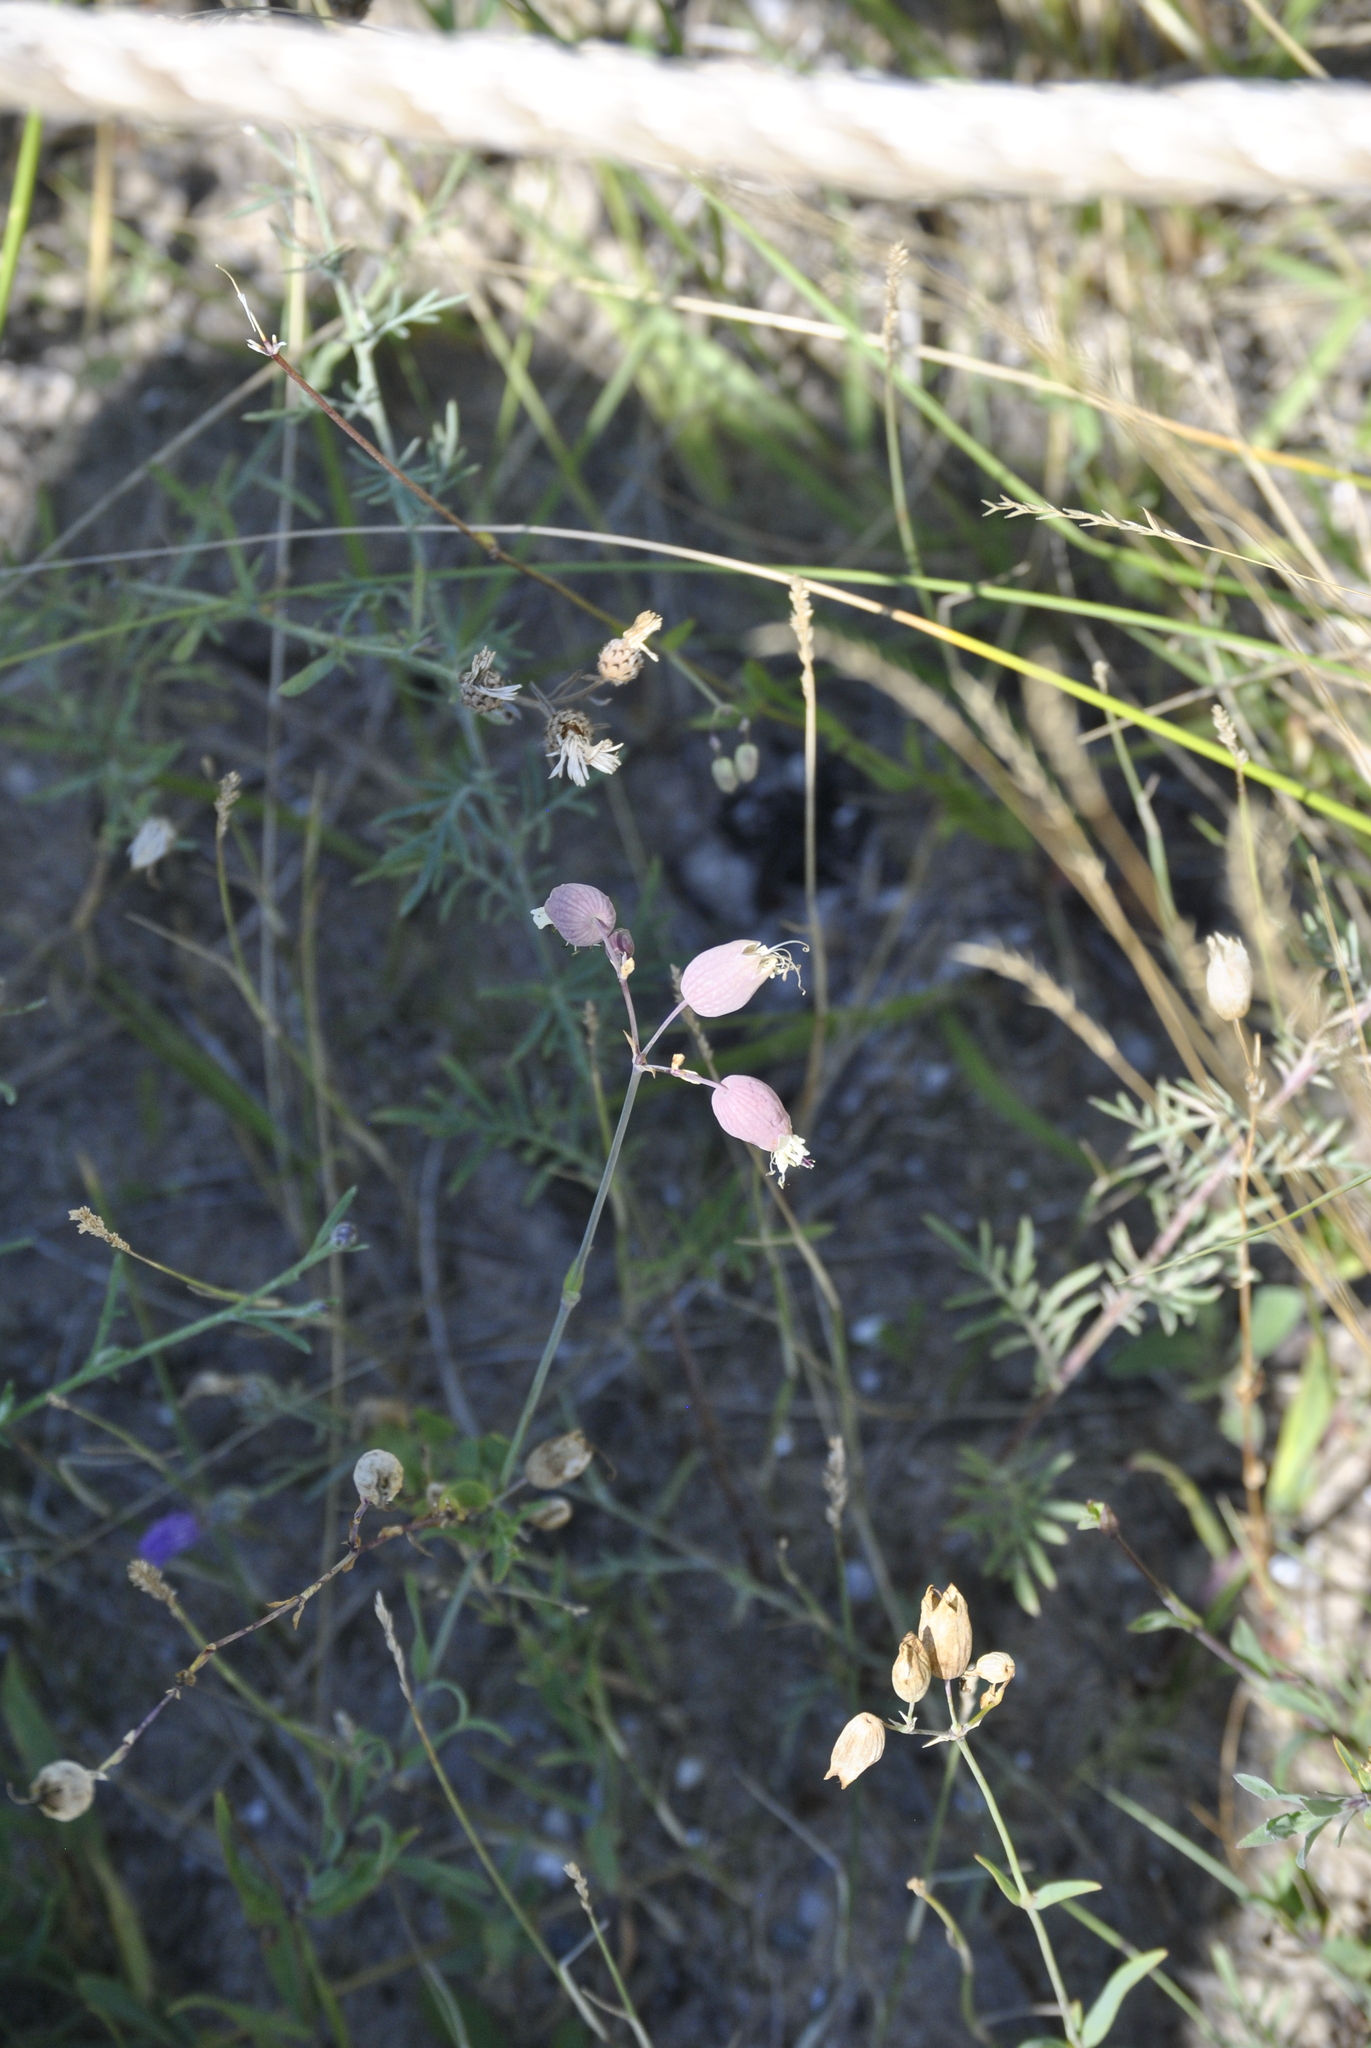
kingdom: Plantae
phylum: Tracheophyta
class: Magnoliopsida
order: Caryophyllales
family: Caryophyllaceae
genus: Silene
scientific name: Silene vulgaris
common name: Bladder campion
